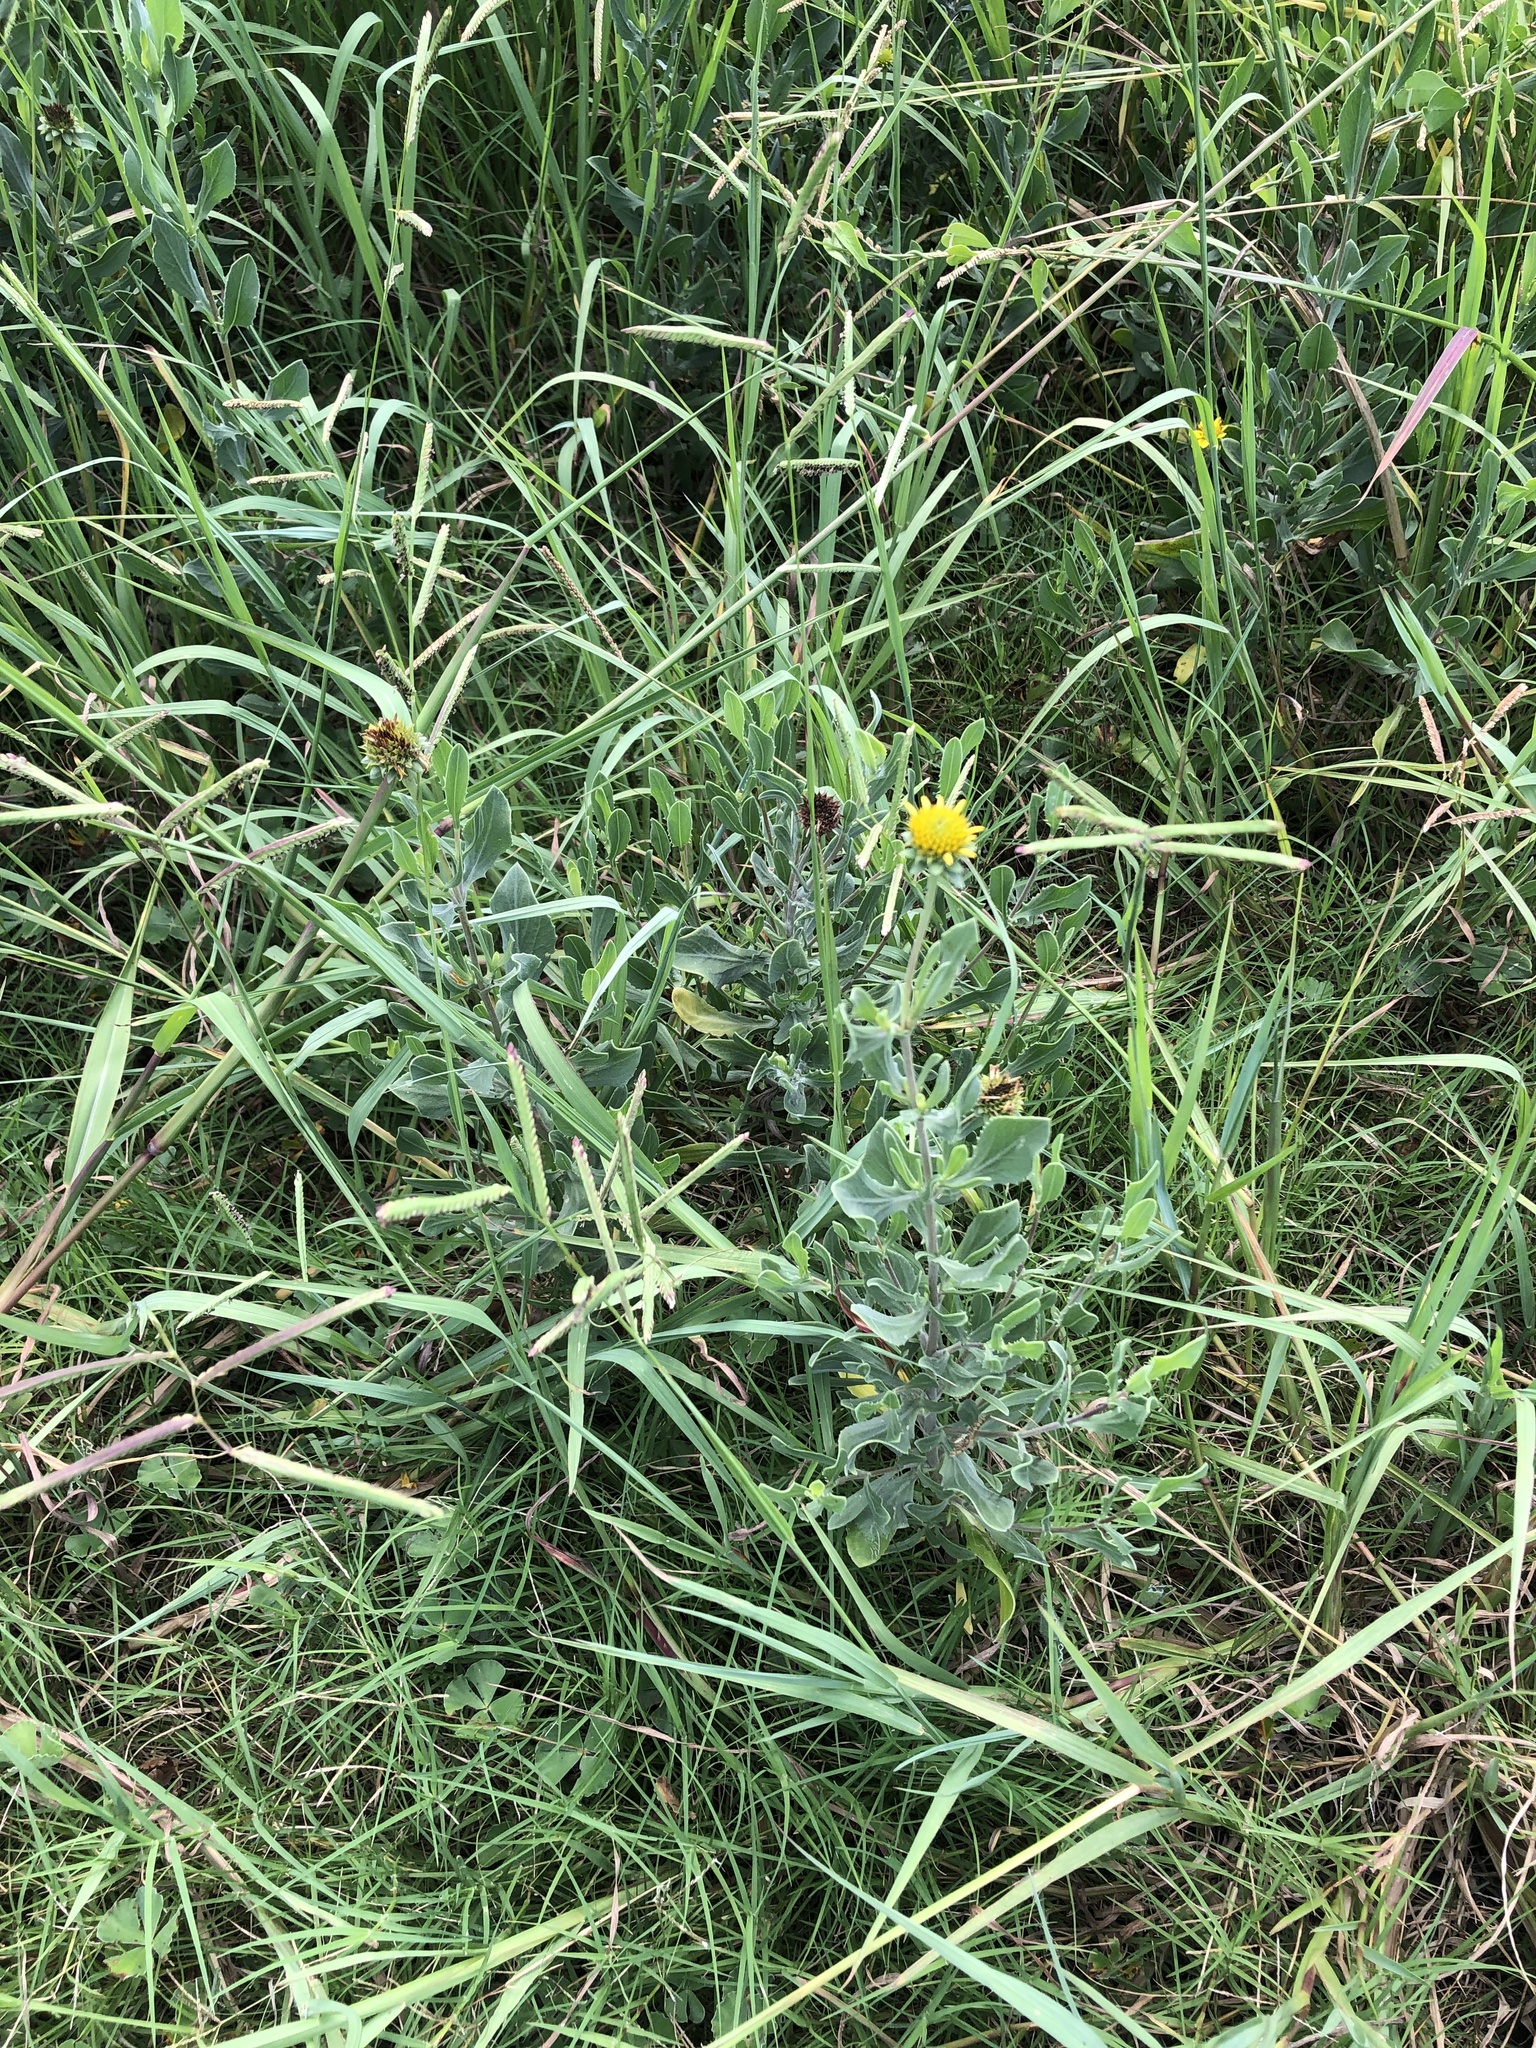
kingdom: Plantae
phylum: Tracheophyta
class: Magnoliopsida
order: Asterales
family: Asteraceae
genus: Borrichia
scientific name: Borrichia frutescens
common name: Sea oxeye
